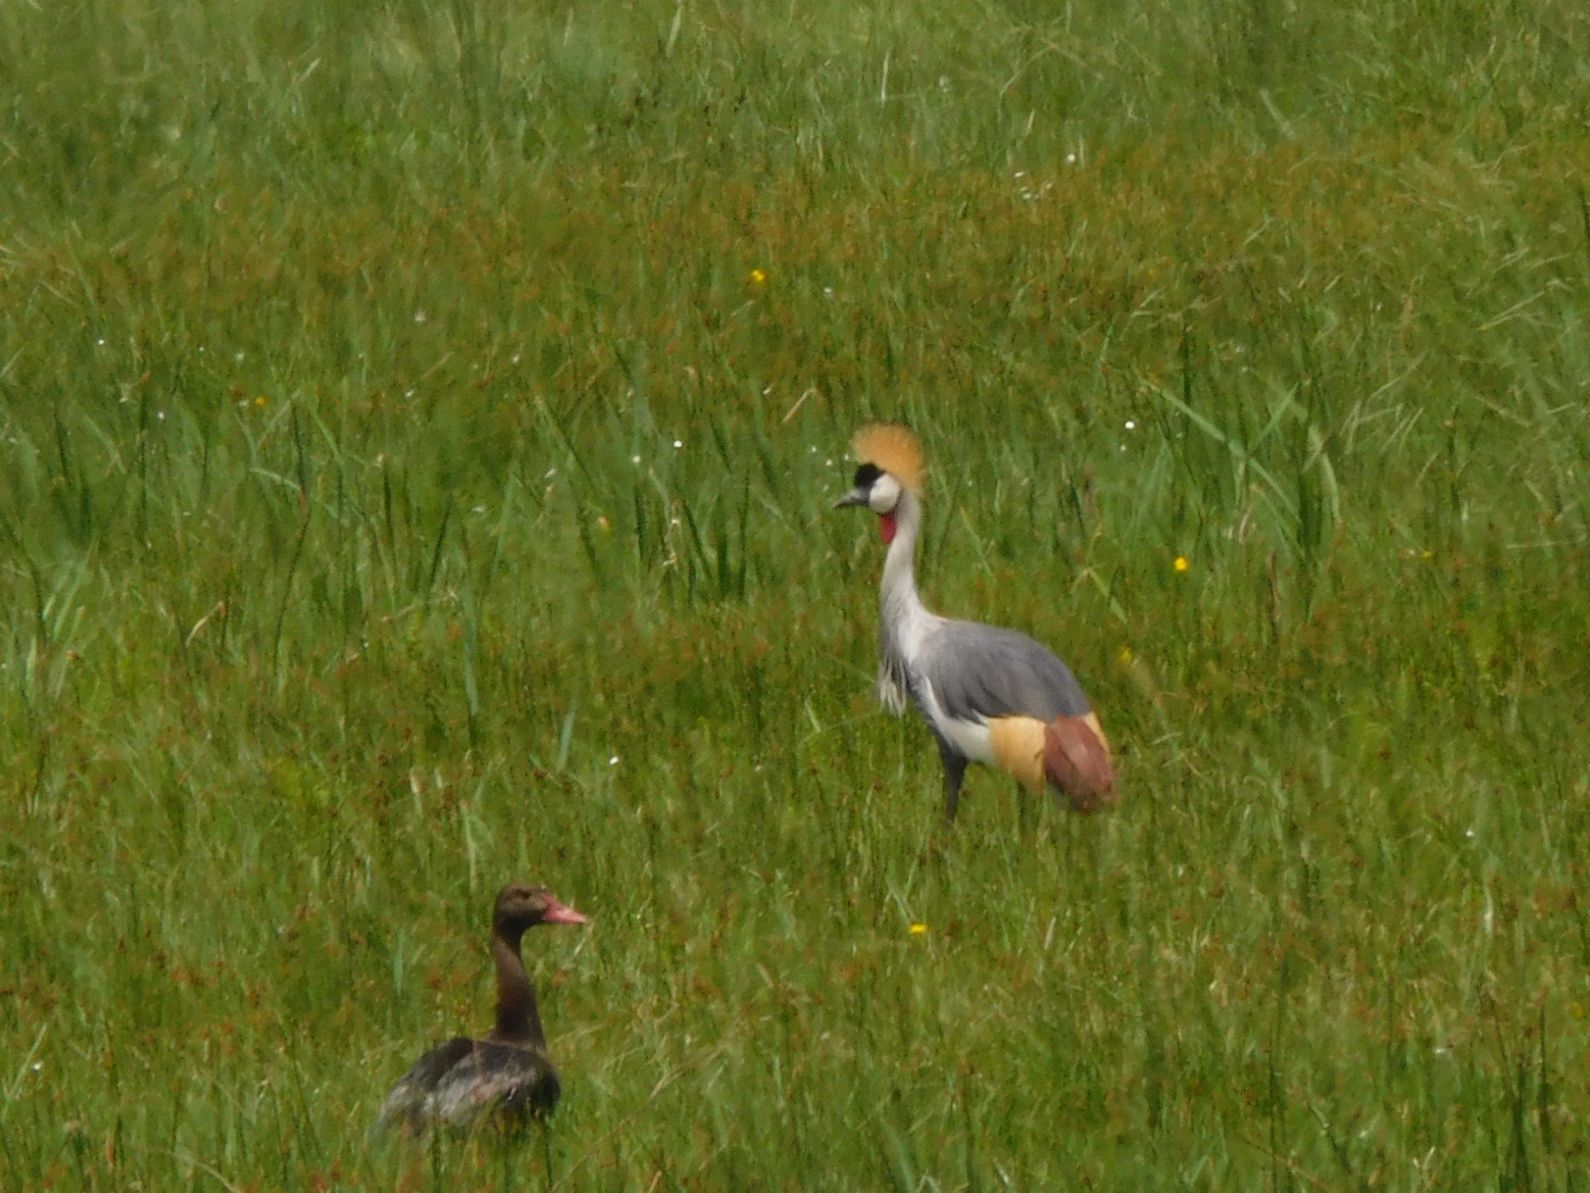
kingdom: Animalia
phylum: Chordata
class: Aves
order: Gruiformes
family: Gruidae
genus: Balearica
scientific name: Balearica regulorum
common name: Grey crowned crane
